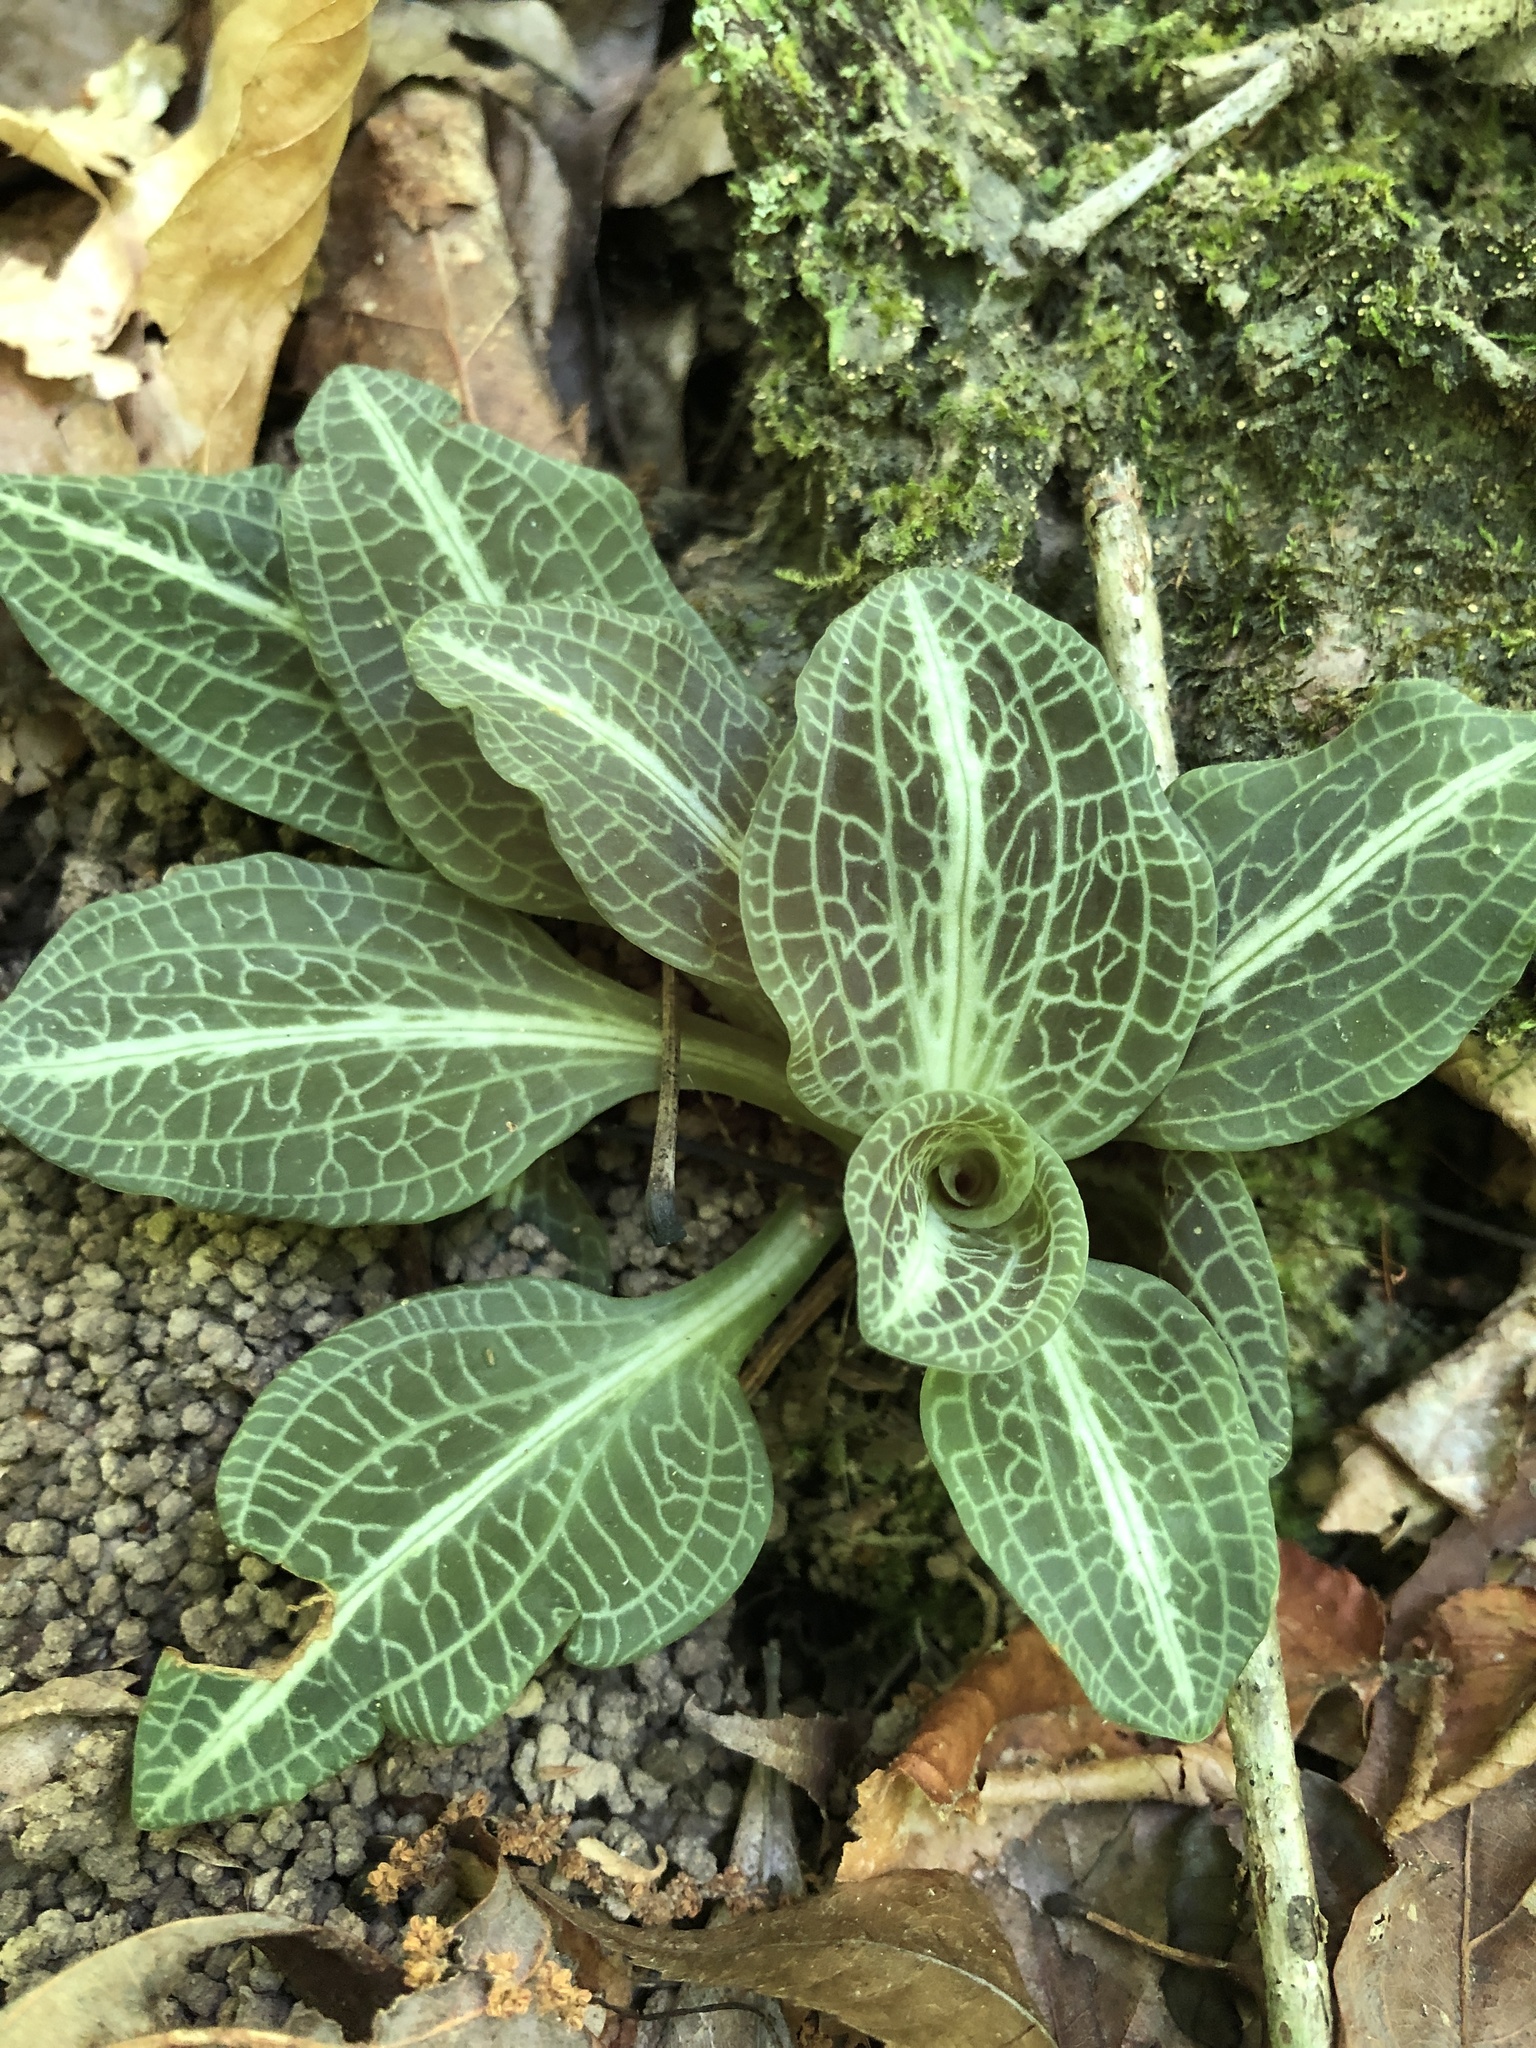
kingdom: Plantae
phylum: Tracheophyta
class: Liliopsida
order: Asparagales
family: Orchidaceae
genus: Goodyera
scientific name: Goodyera pubescens
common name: Downy rattlesnake-plantain
